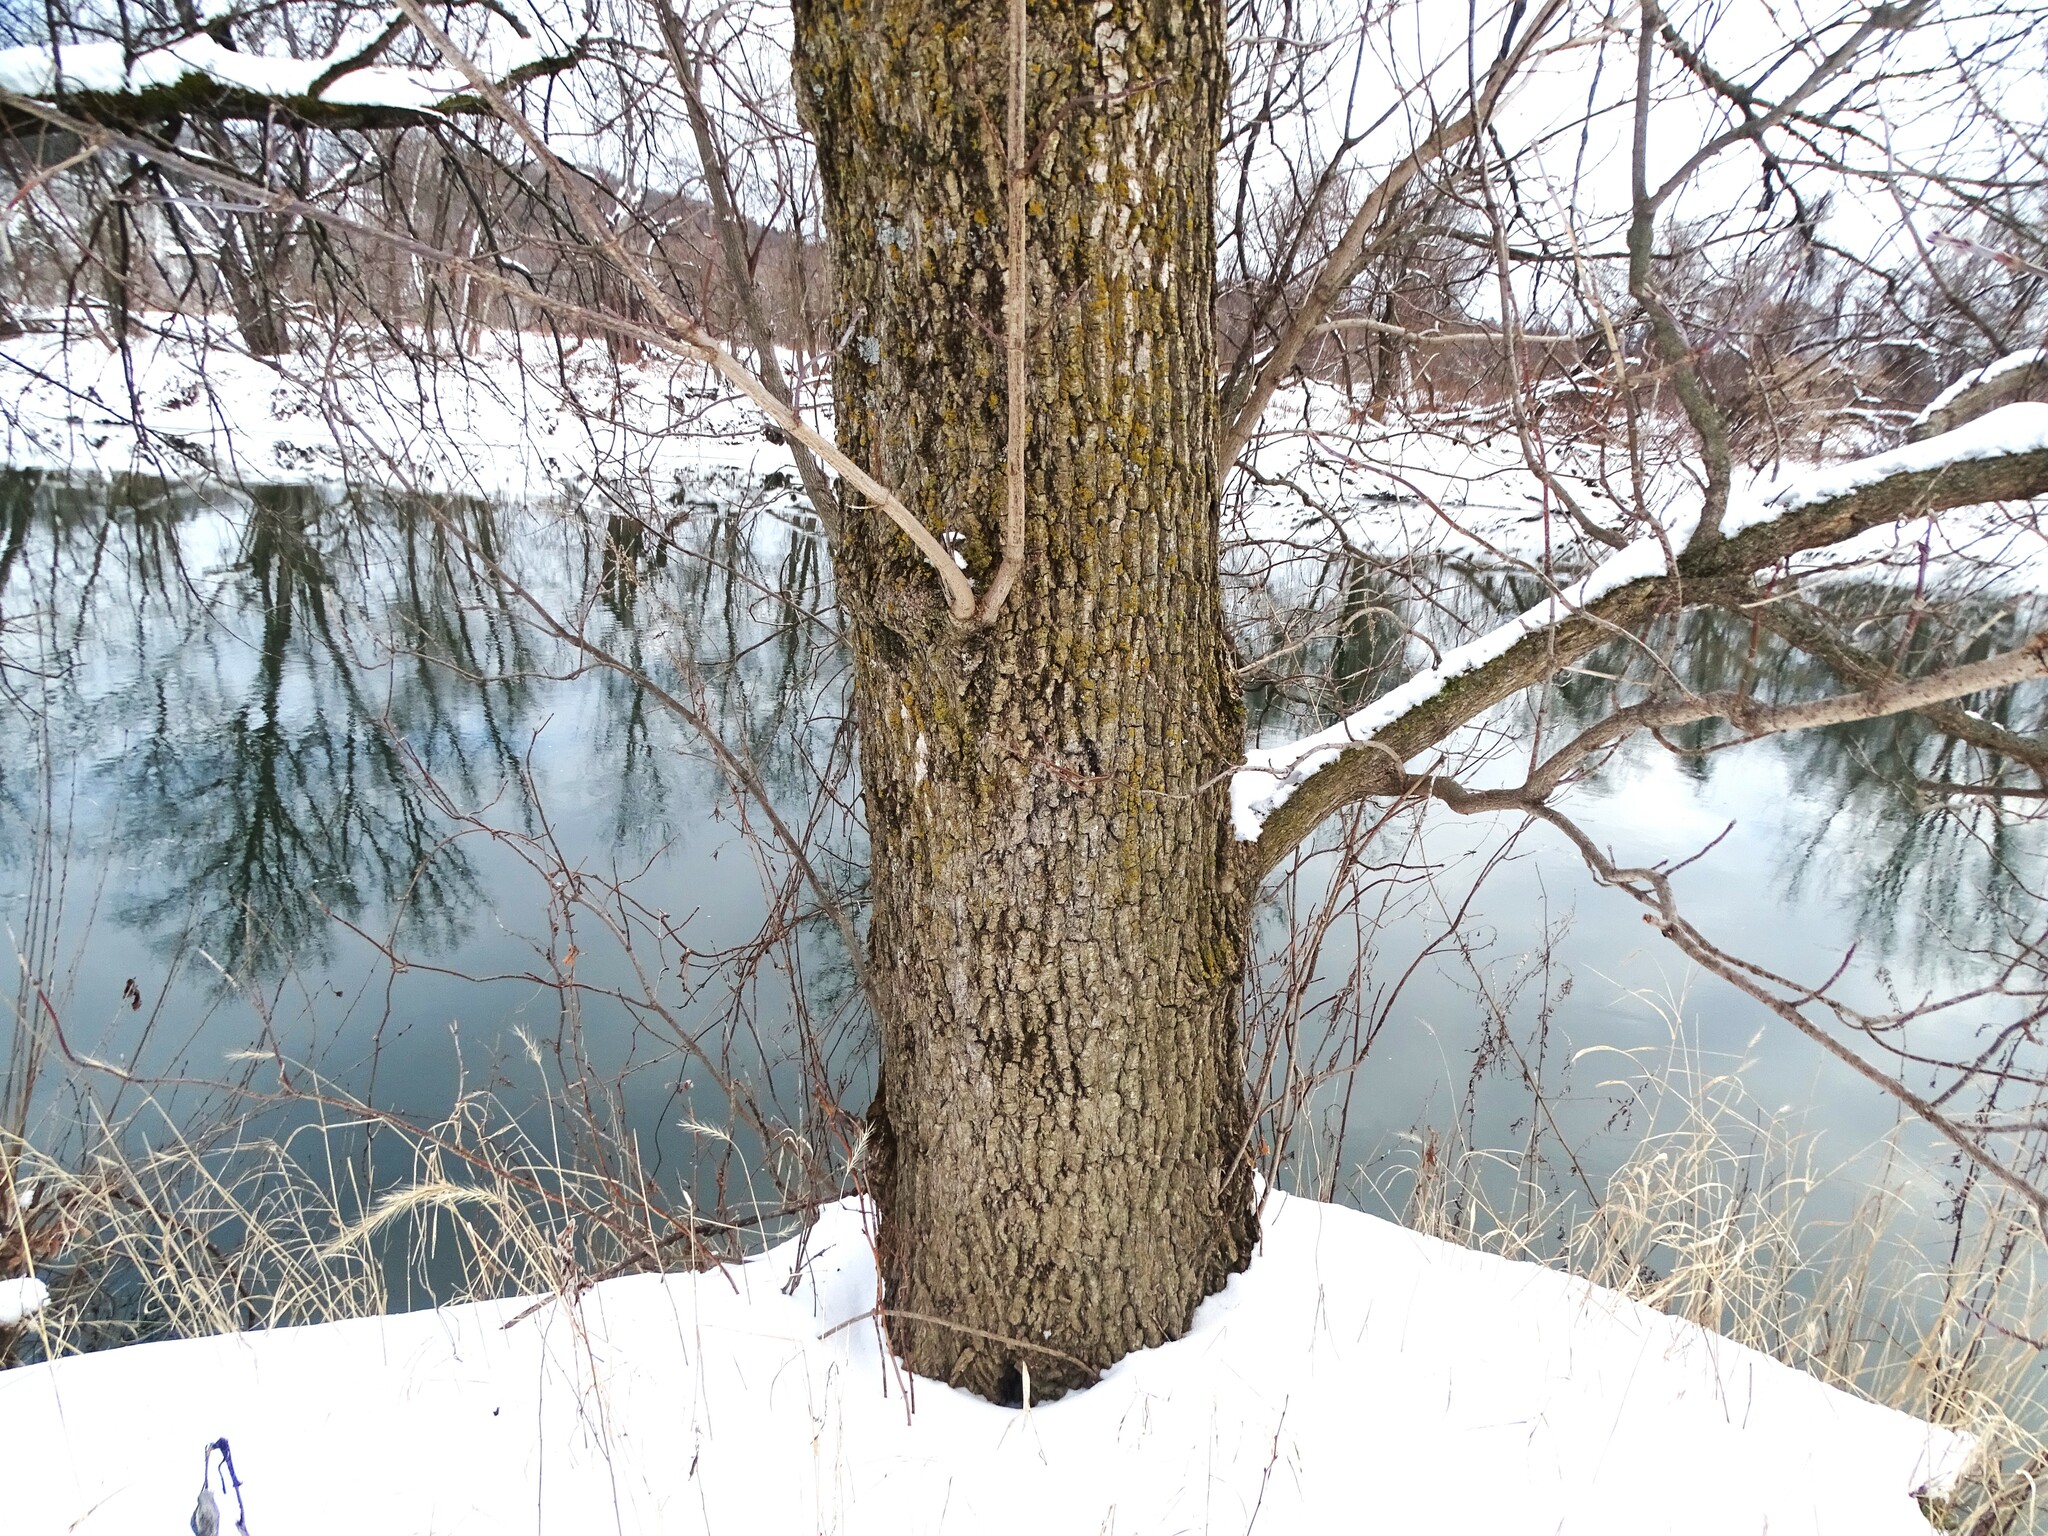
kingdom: Plantae
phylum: Tracheophyta
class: Magnoliopsida
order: Sapindales
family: Sapindaceae
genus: Acer
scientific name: Acer negundo
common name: Ashleaf maple
